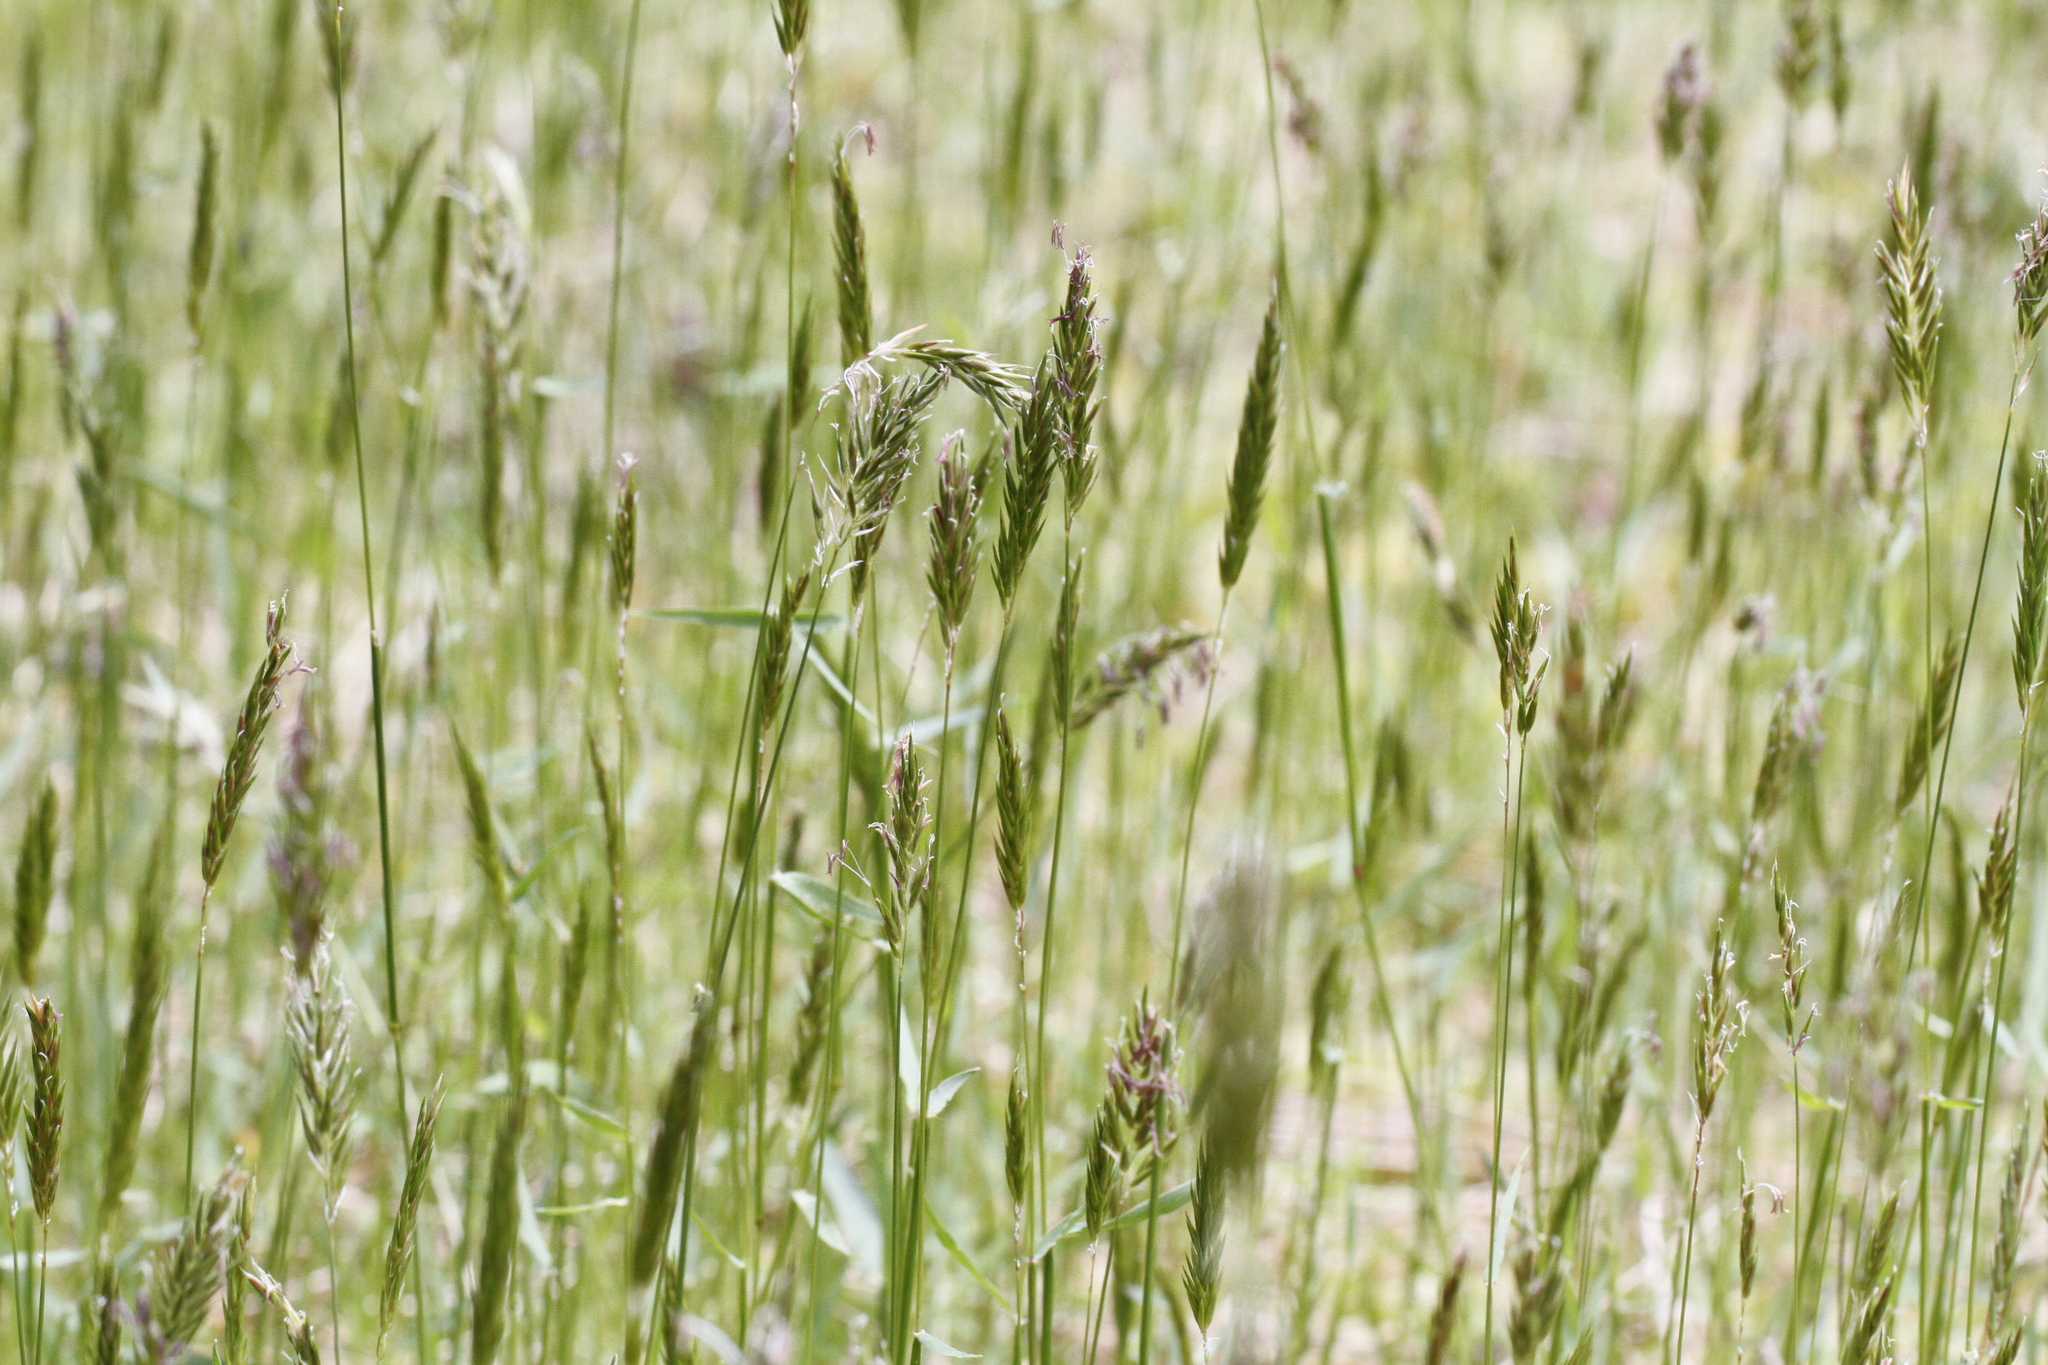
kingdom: Plantae
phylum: Tracheophyta
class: Liliopsida
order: Poales
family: Poaceae
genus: Anthoxanthum
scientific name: Anthoxanthum odoratum
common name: Sweet vernalgrass
